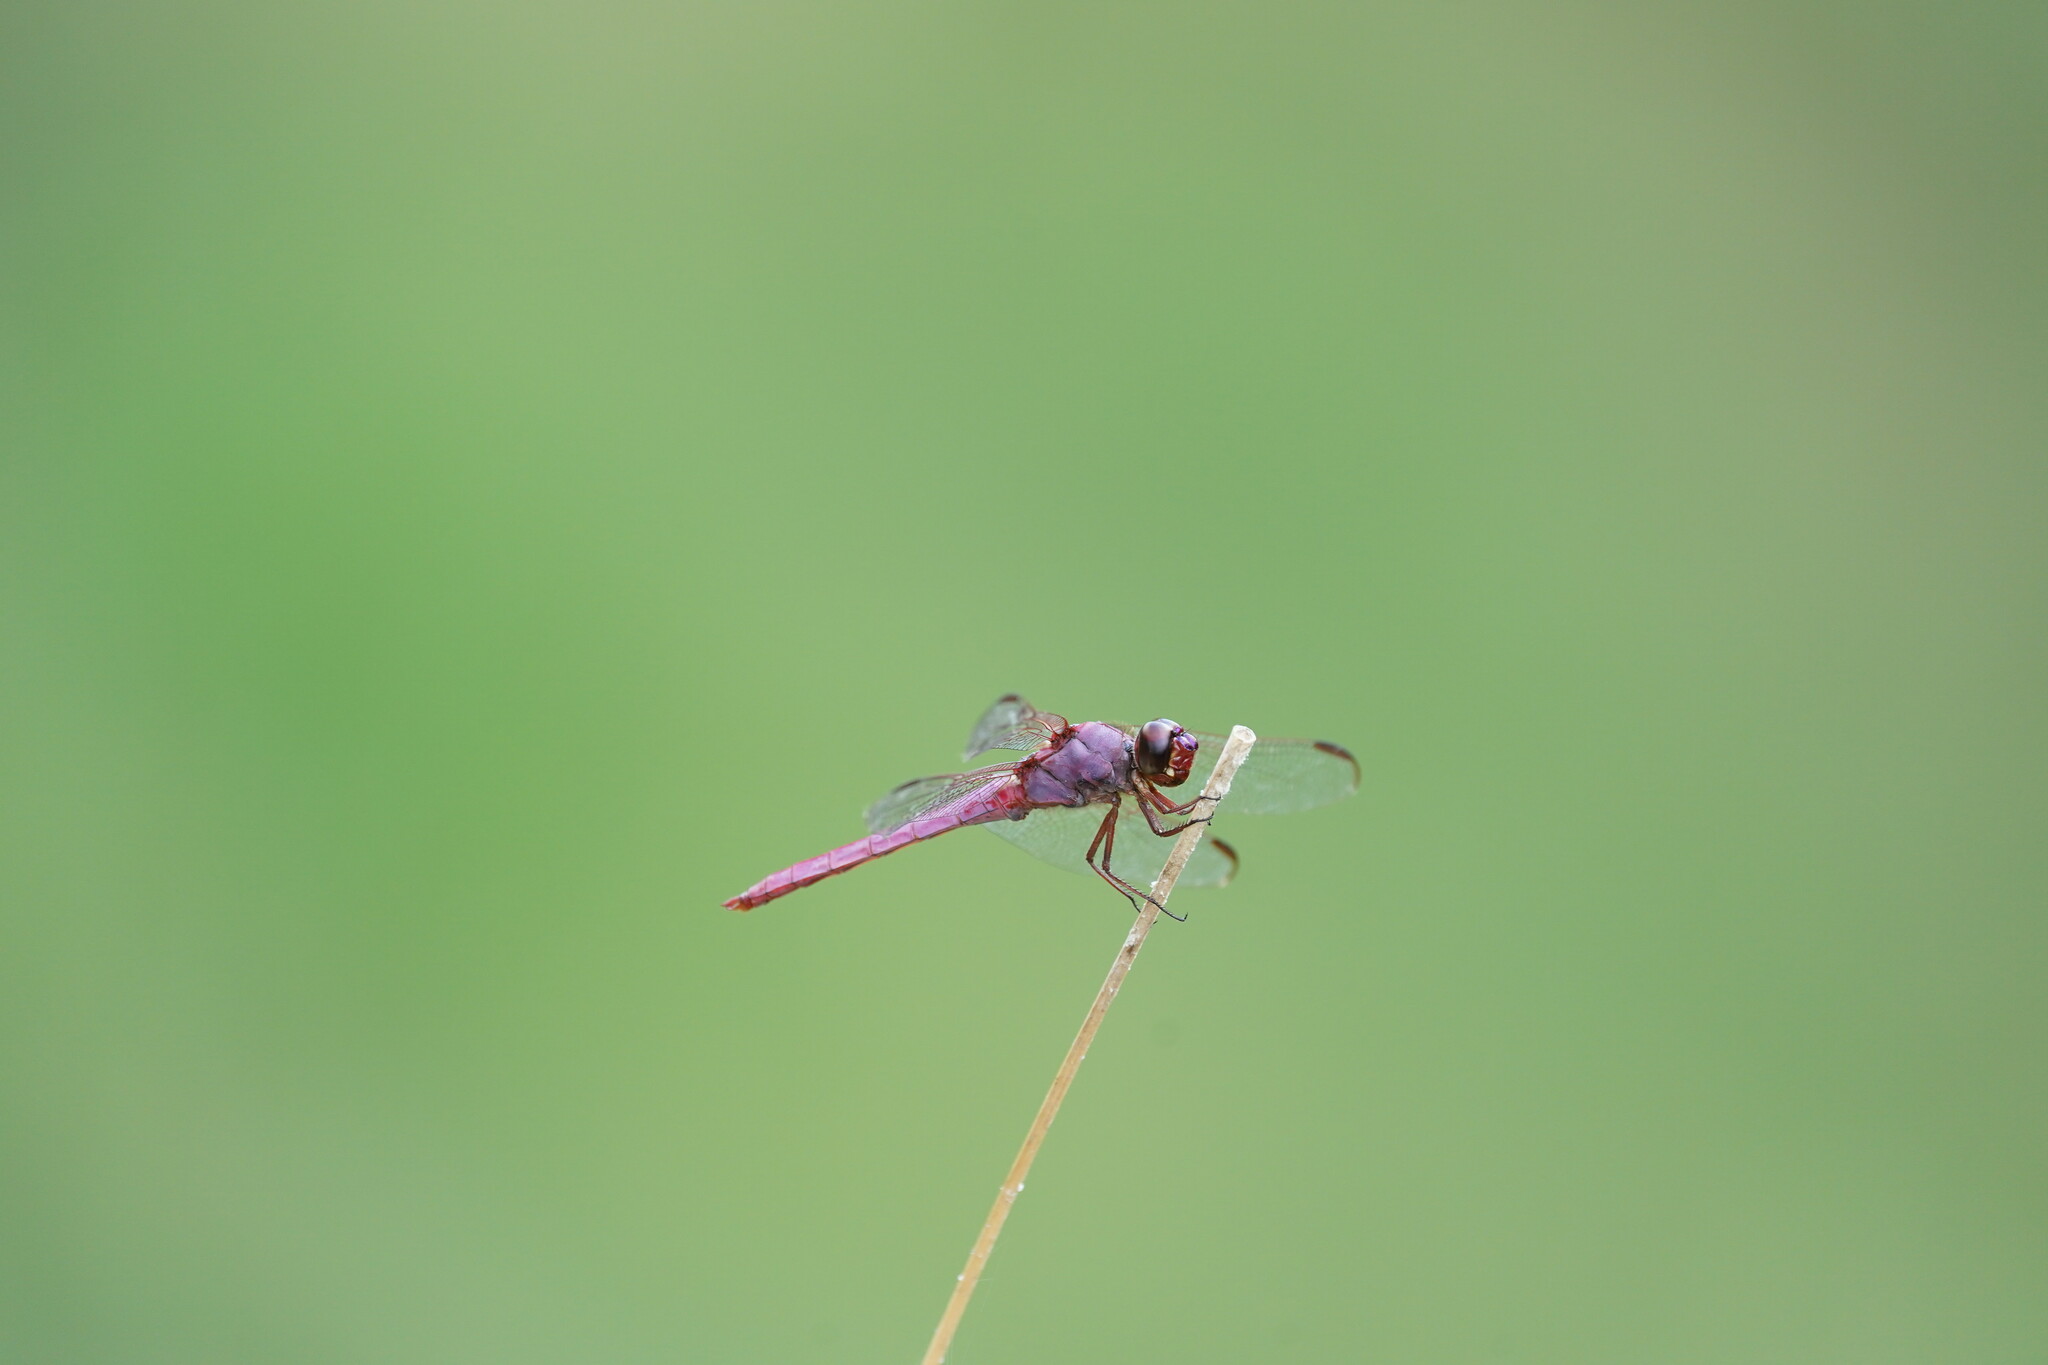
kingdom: Animalia
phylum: Arthropoda
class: Insecta
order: Odonata
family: Libellulidae
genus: Orthemis
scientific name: Orthemis ferruginea
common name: Roseate skimmer
